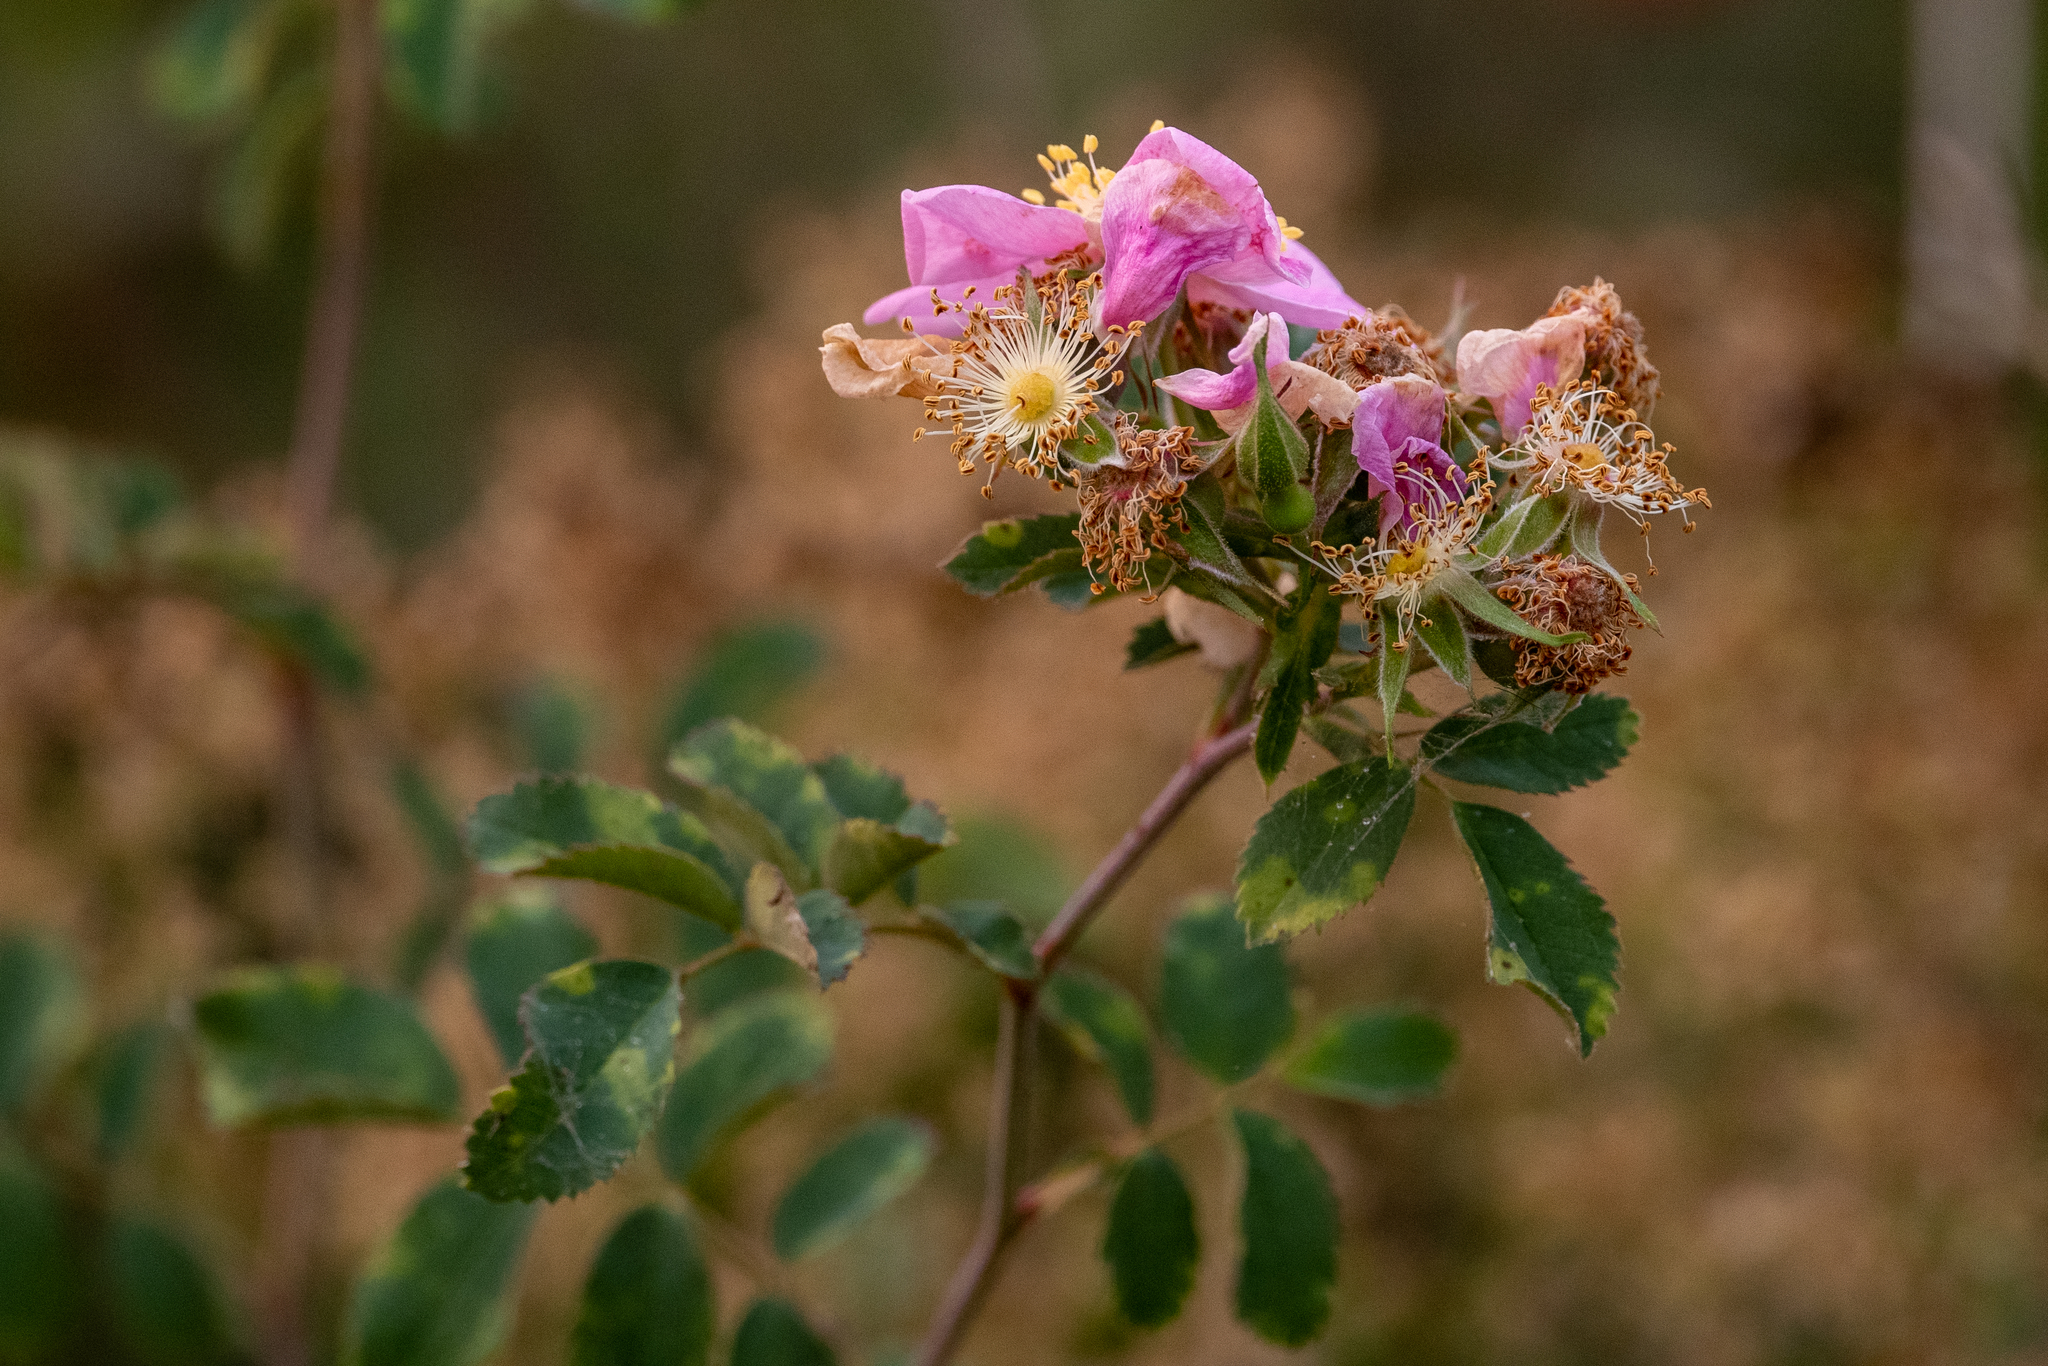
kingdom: Plantae
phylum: Tracheophyta
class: Magnoliopsida
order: Rosales
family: Rosaceae
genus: Rosa
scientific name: Rosa californica
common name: California rose
